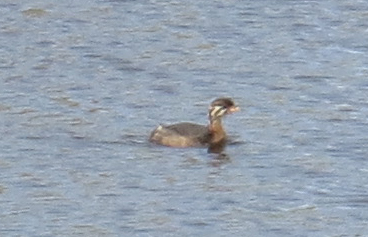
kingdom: Animalia
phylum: Chordata
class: Aves
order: Podicipediformes
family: Podicipedidae
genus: Podilymbus
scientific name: Podilymbus podiceps
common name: Pied-billed grebe
